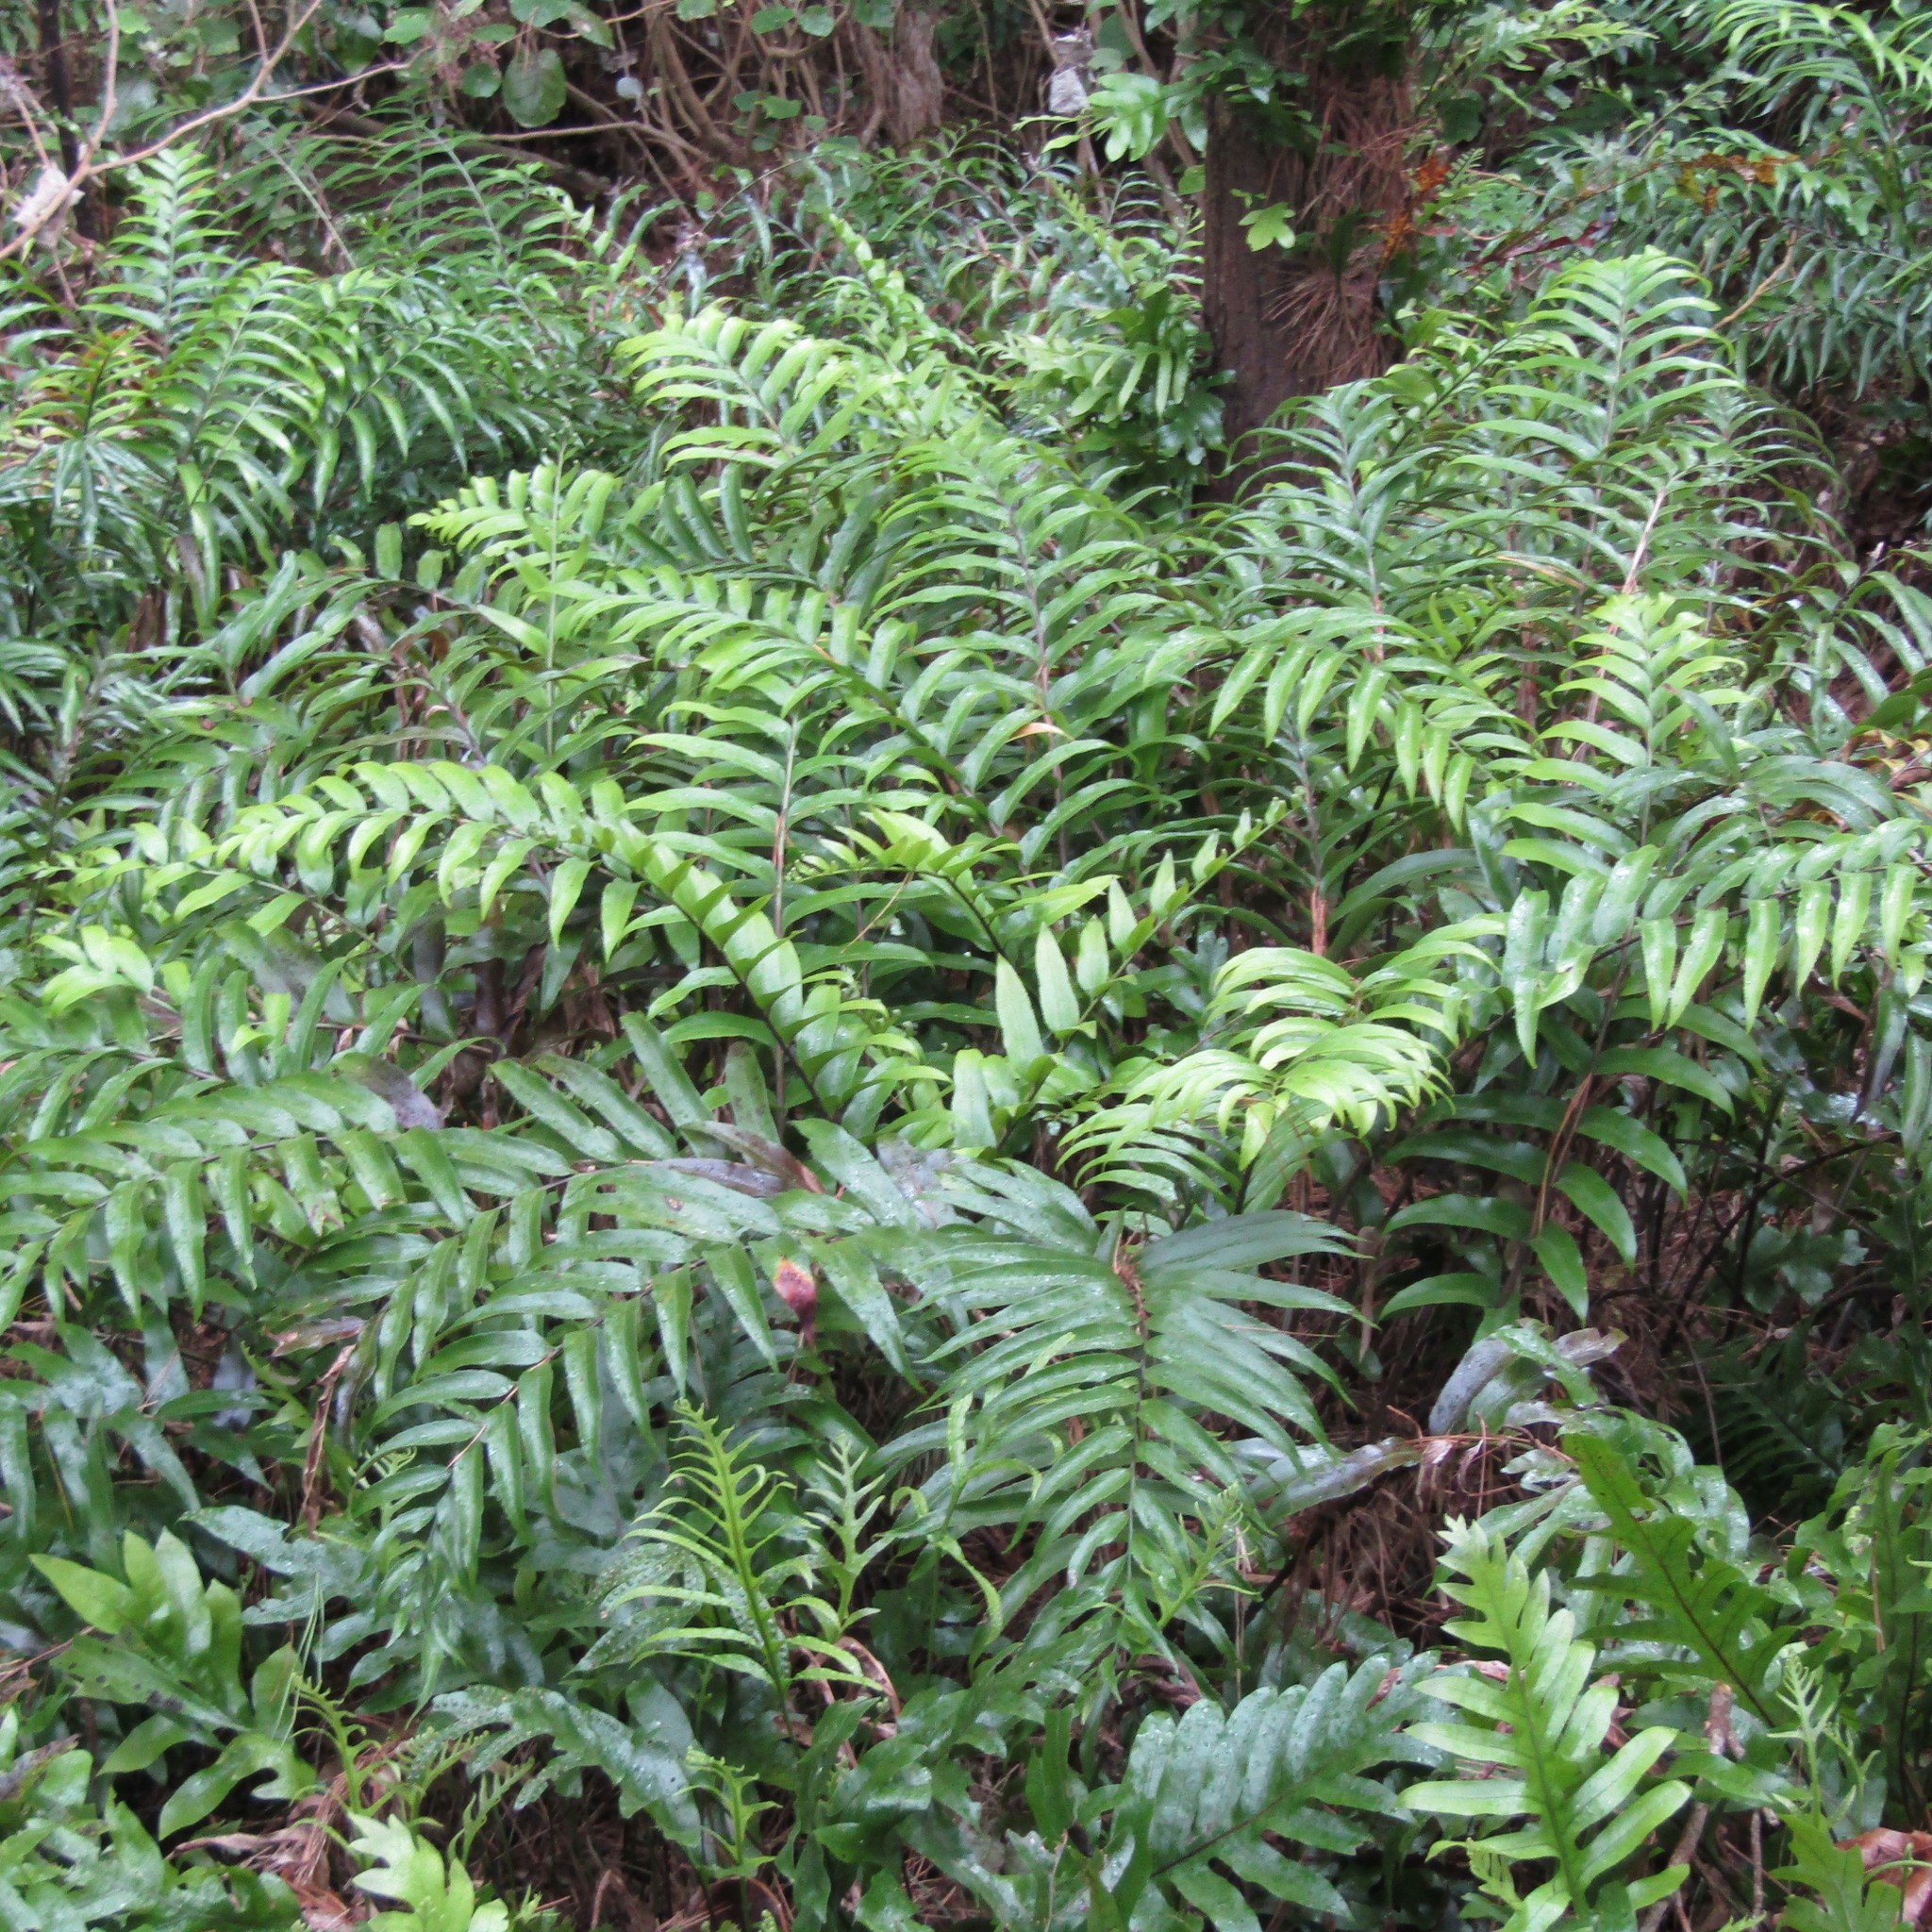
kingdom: Plantae
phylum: Tracheophyta
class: Polypodiopsida
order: Polypodiales
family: Aspleniaceae
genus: Asplenium
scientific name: Asplenium oblongifolium
